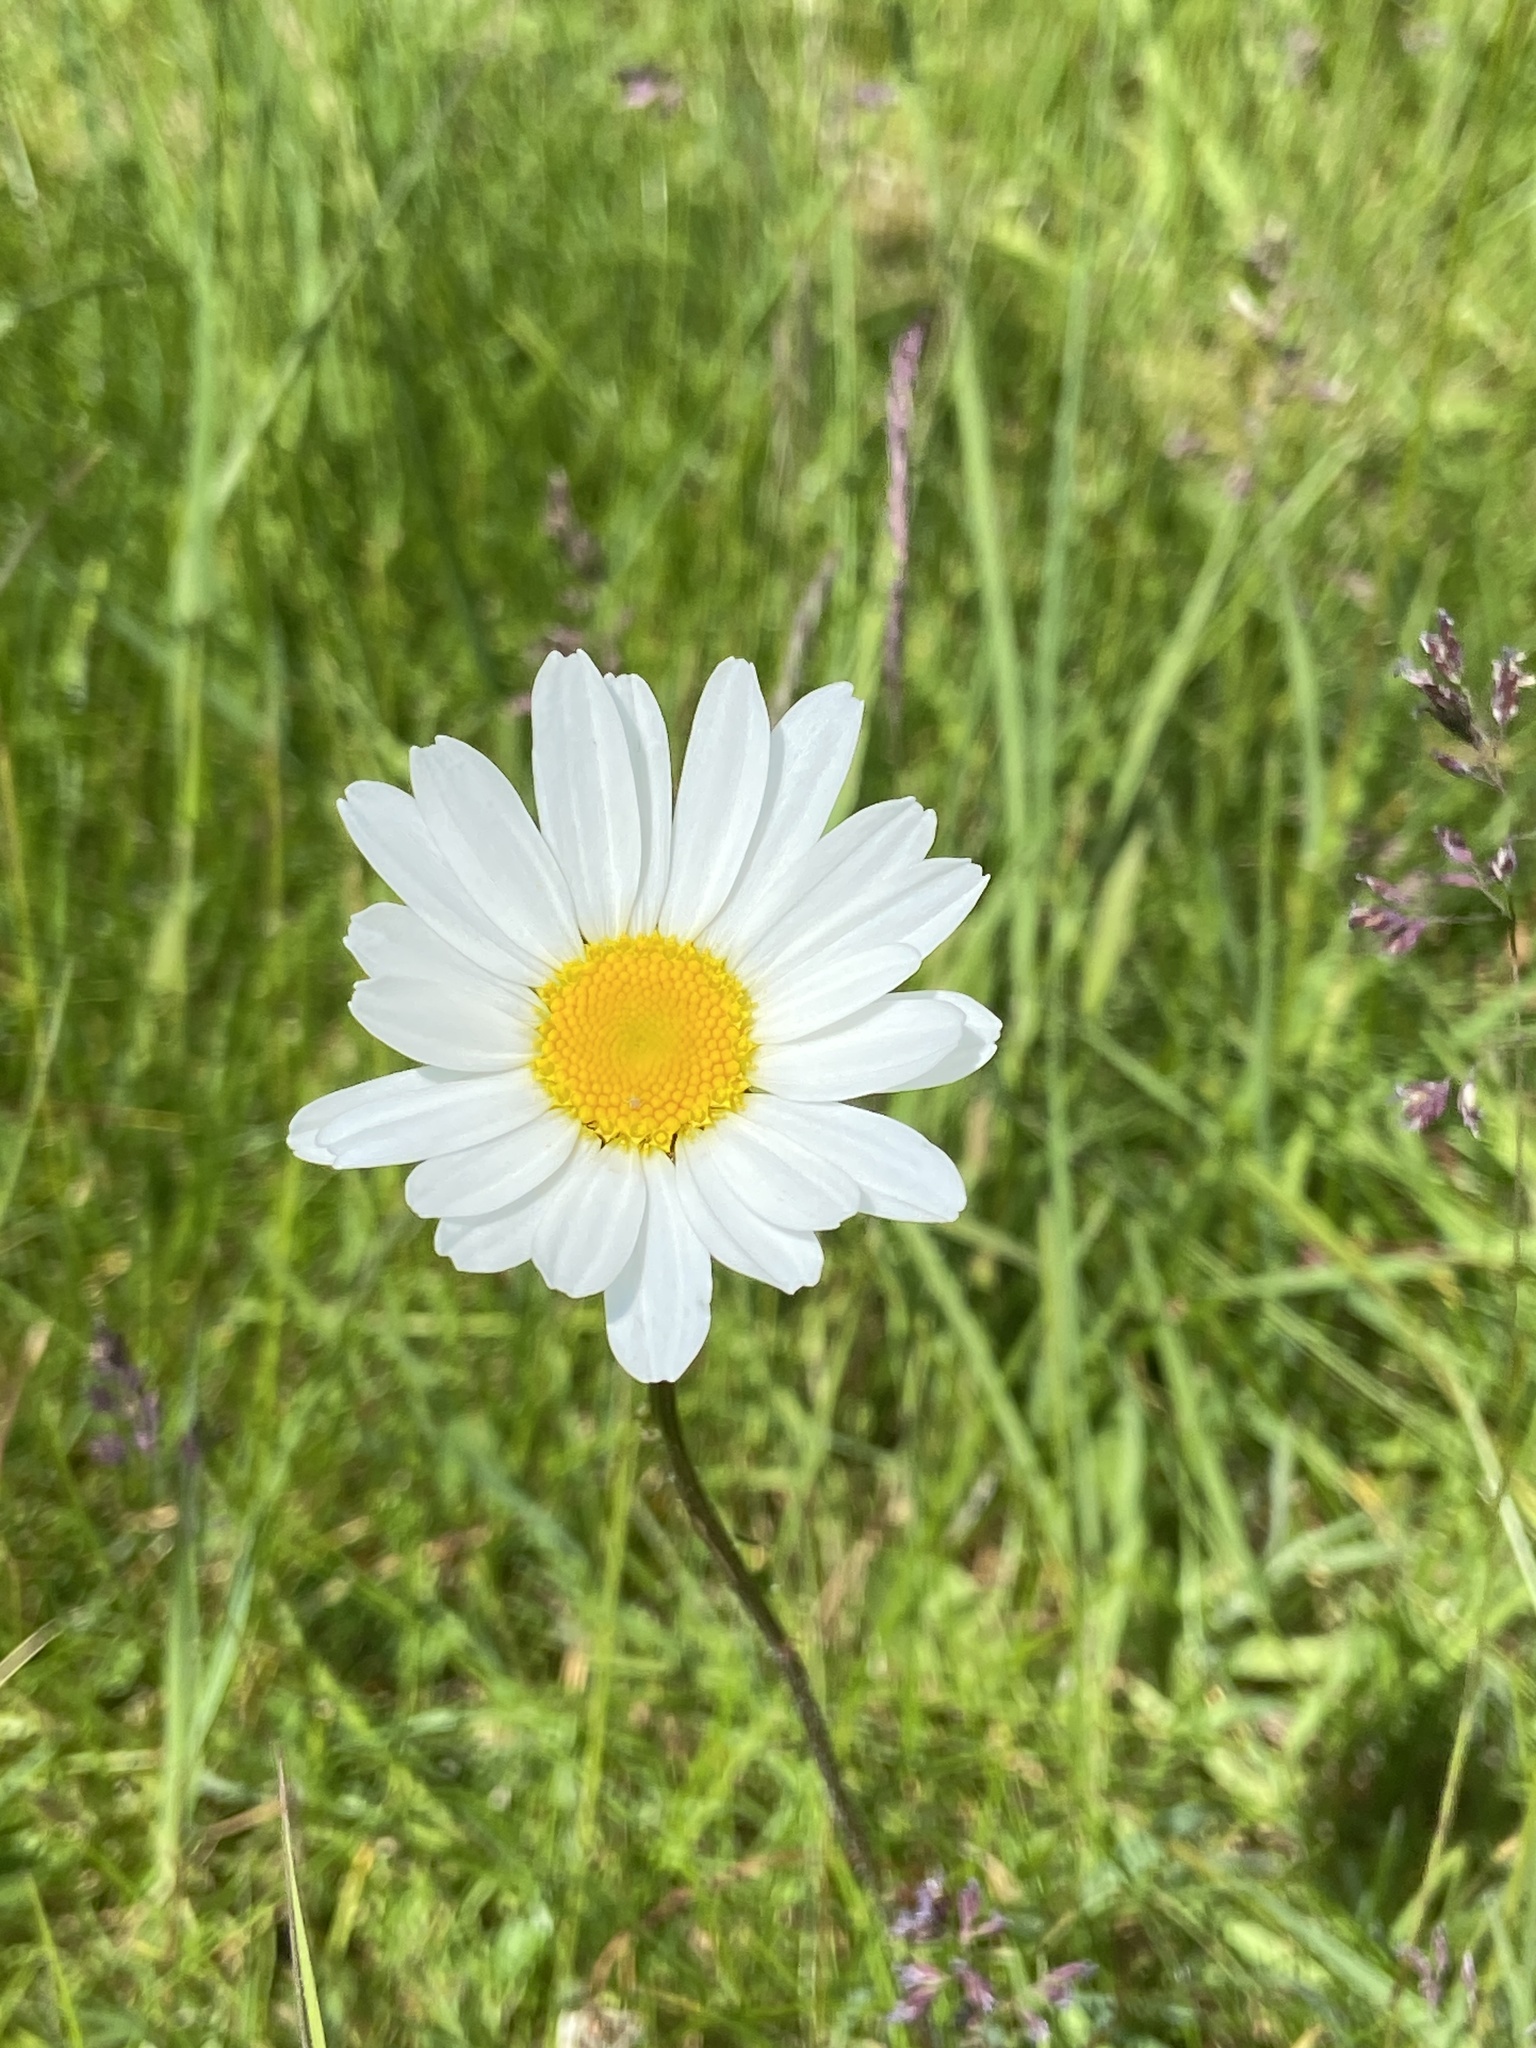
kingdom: Plantae
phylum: Tracheophyta
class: Magnoliopsida
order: Asterales
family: Asteraceae
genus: Leucanthemum
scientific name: Leucanthemum vulgare
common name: Oxeye daisy
